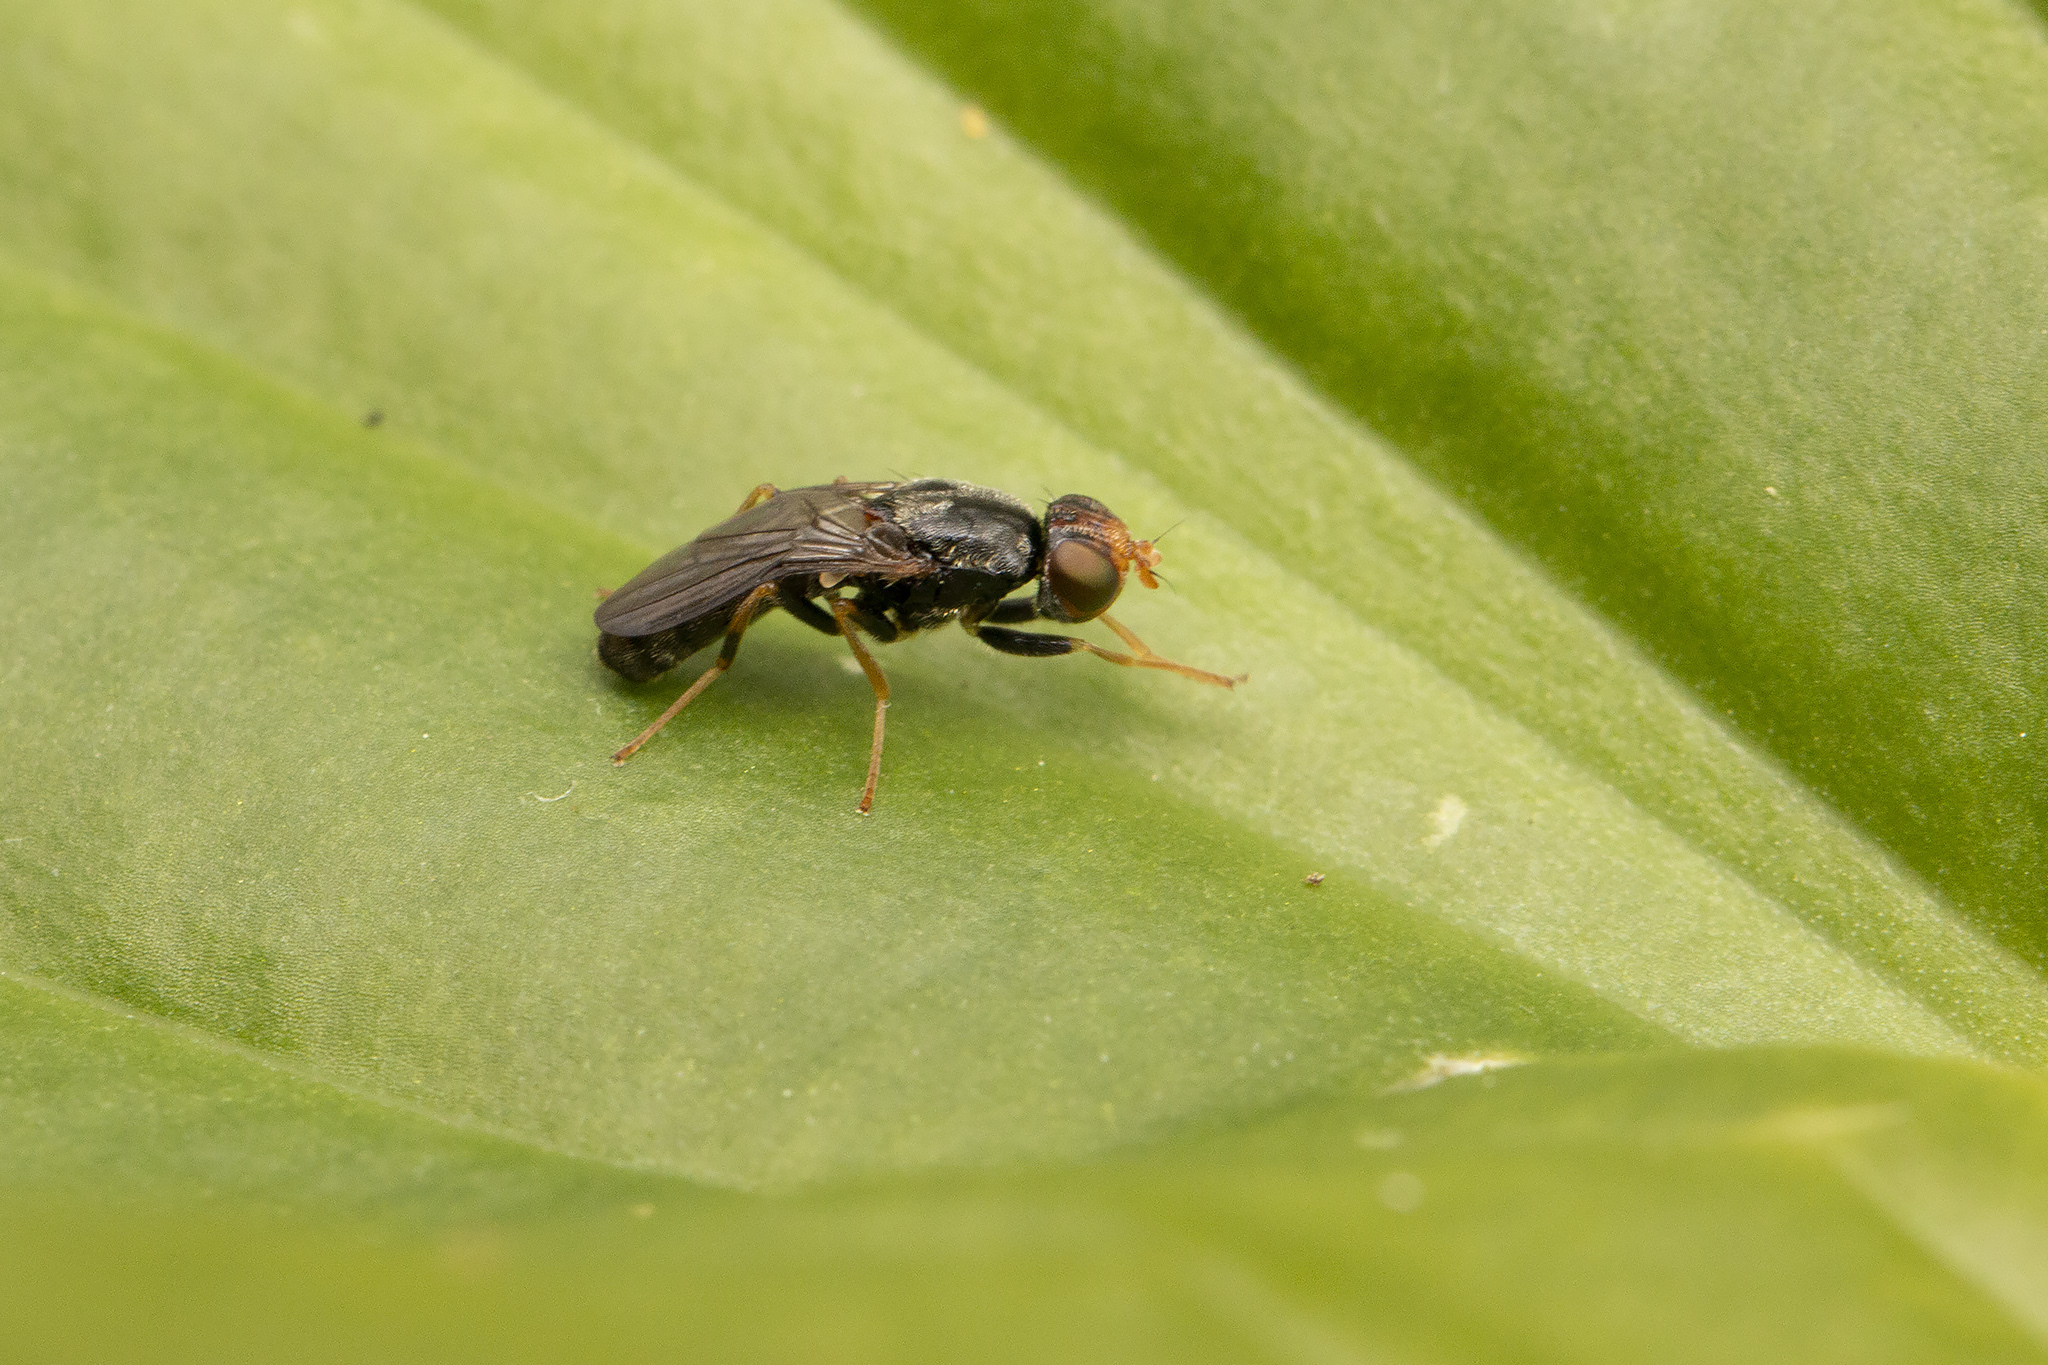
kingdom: Animalia
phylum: Arthropoda
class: Insecta
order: Diptera
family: Psilidae
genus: Chyliza
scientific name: Chyliza leguminicola
